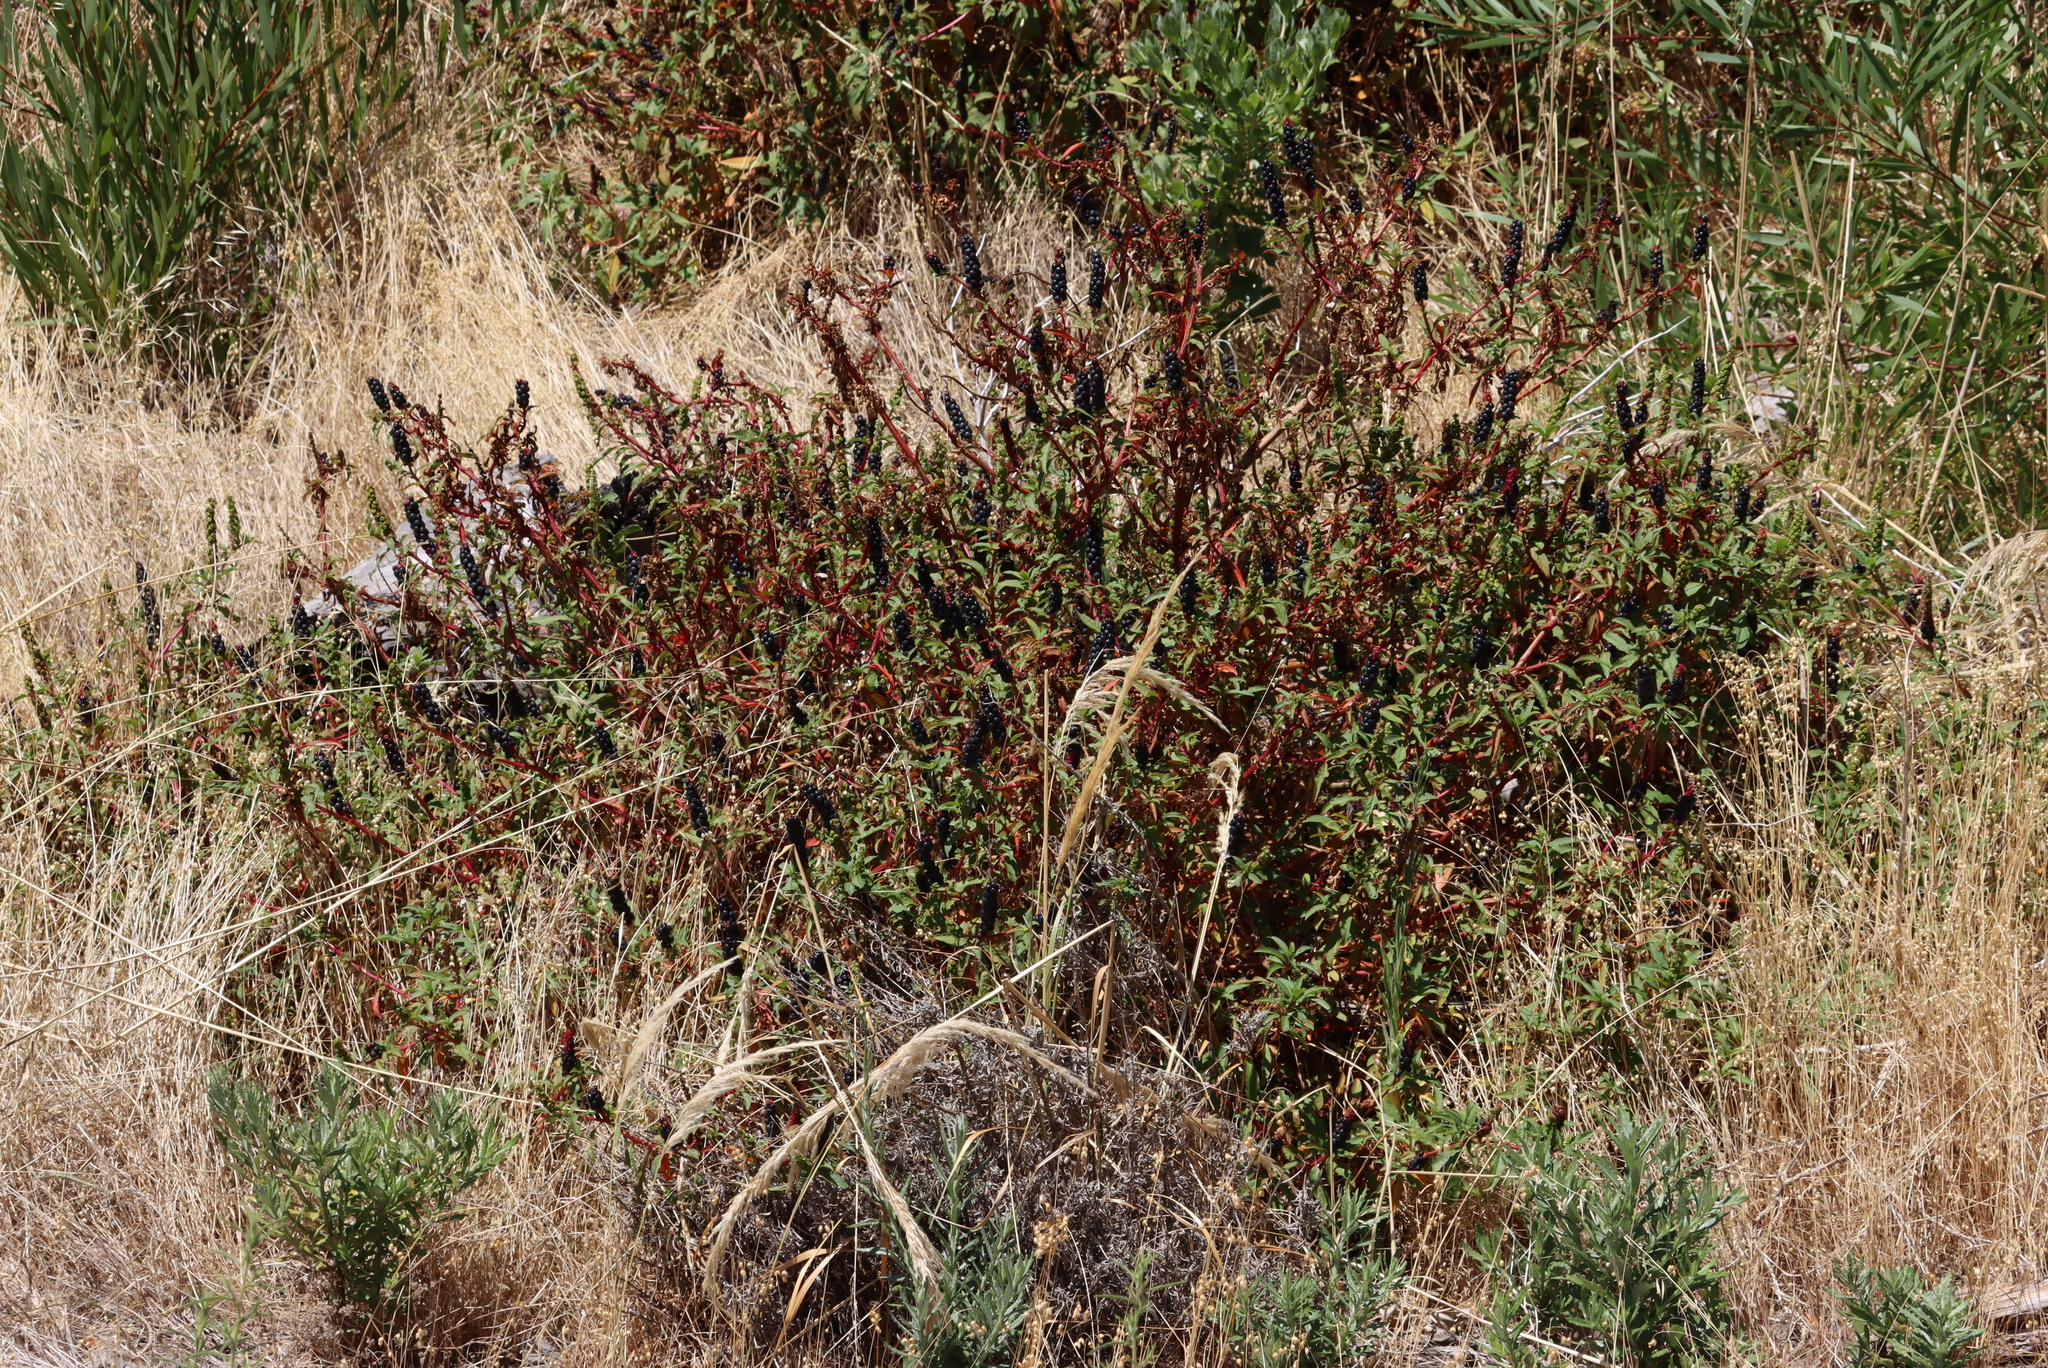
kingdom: Plantae
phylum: Tracheophyta
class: Magnoliopsida
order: Caryophyllales
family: Phytolaccaceae
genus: Phytolacca
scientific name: Phytolacca icosandra
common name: Button pokeweed
